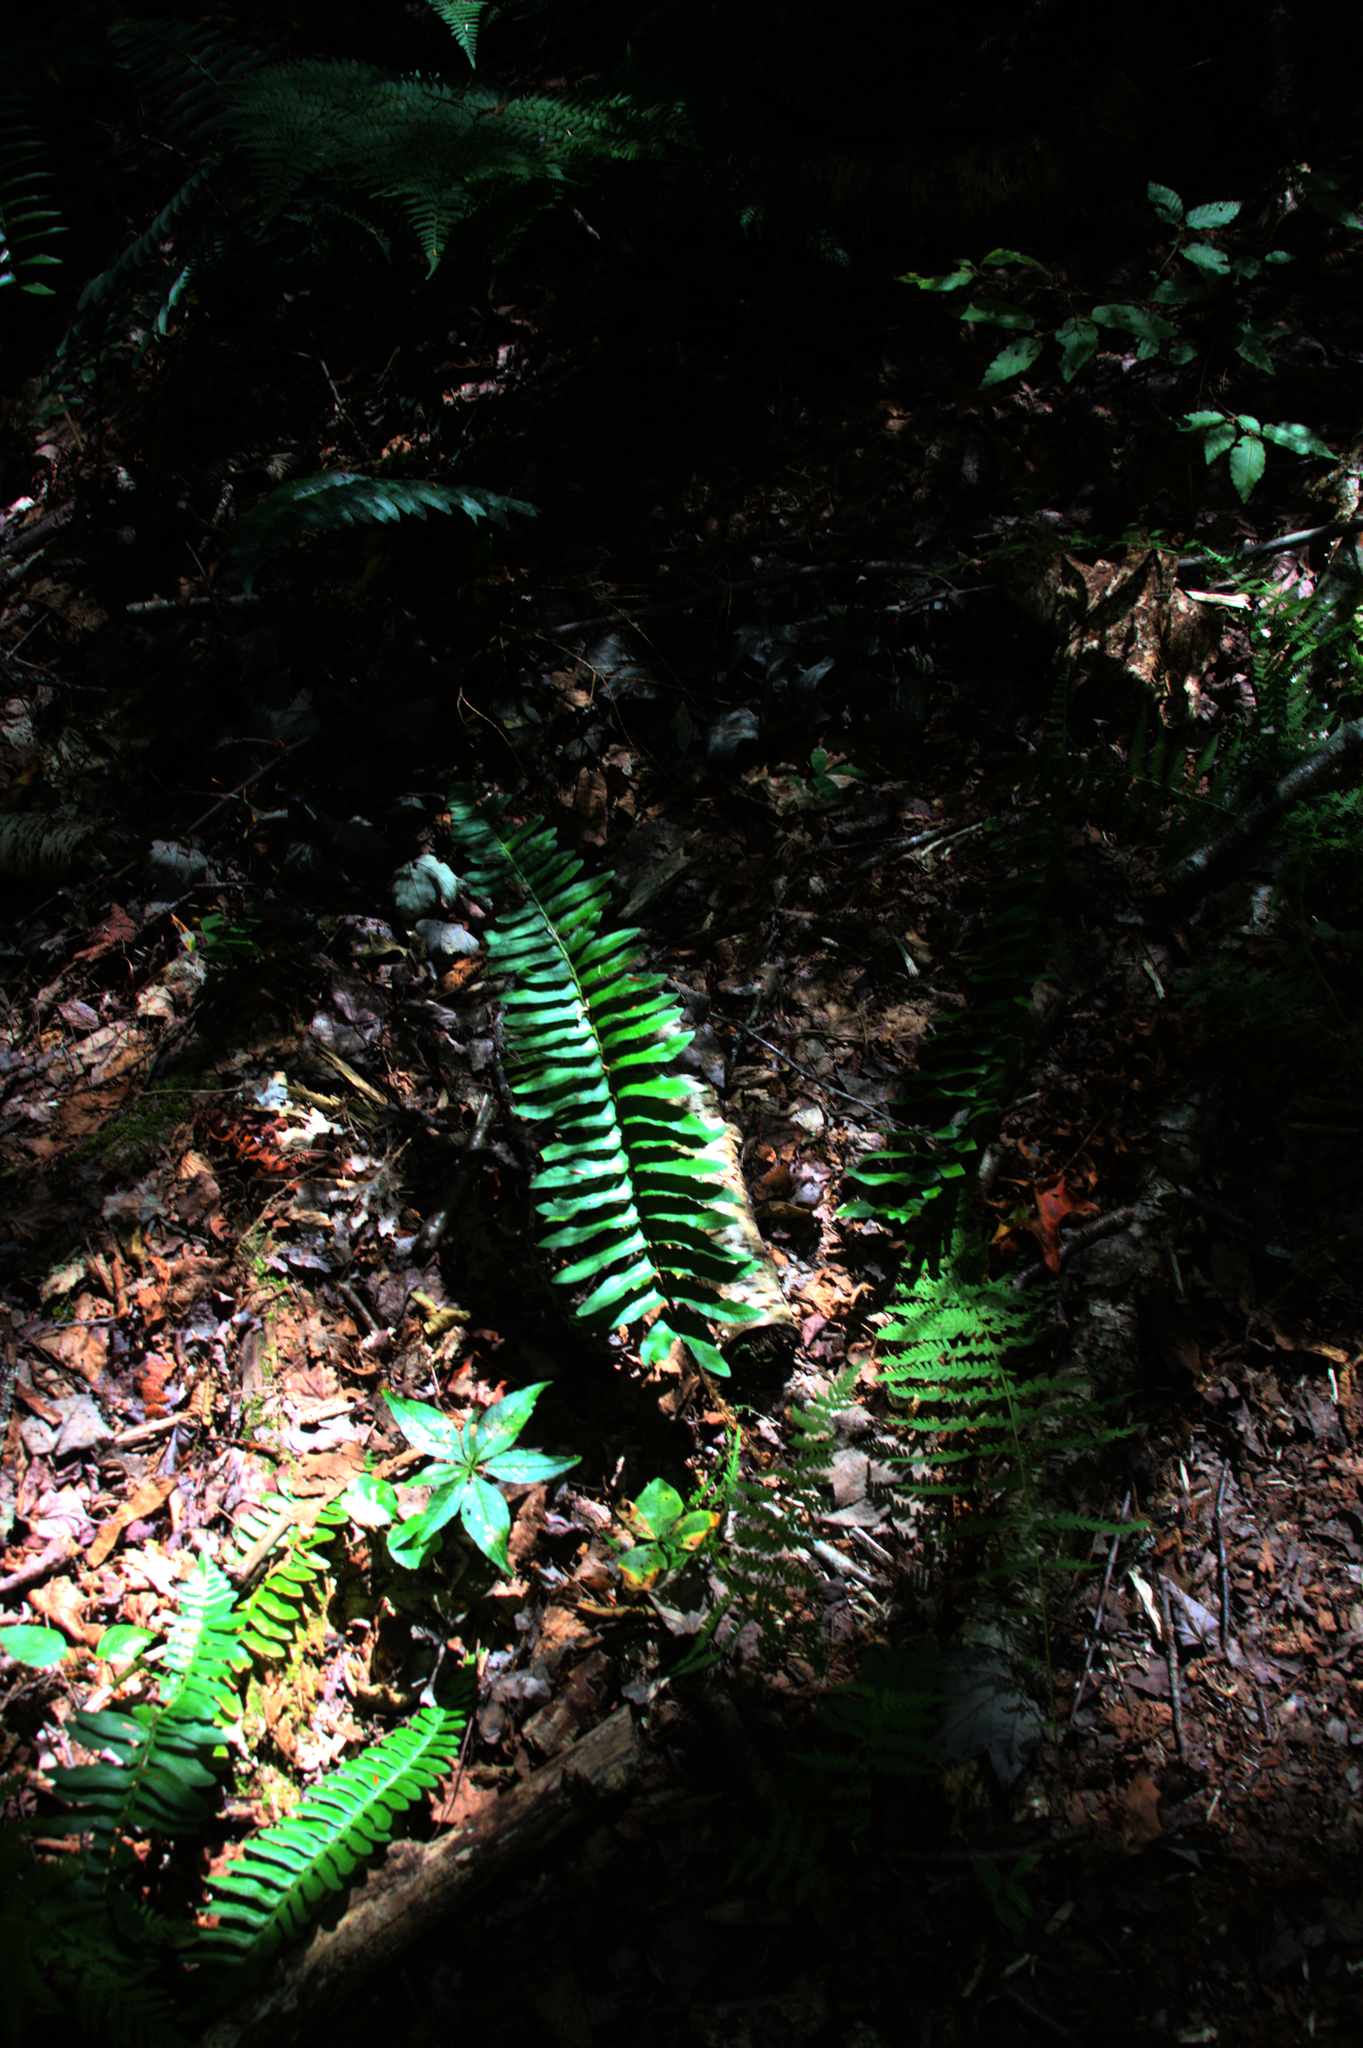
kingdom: Plantae
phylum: Tracheophyta
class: Polypodiopsida
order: Polypodiales
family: Dryopteridaceae
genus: Polystichum
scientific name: Polystichum acrostichoides
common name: Christmas fern
